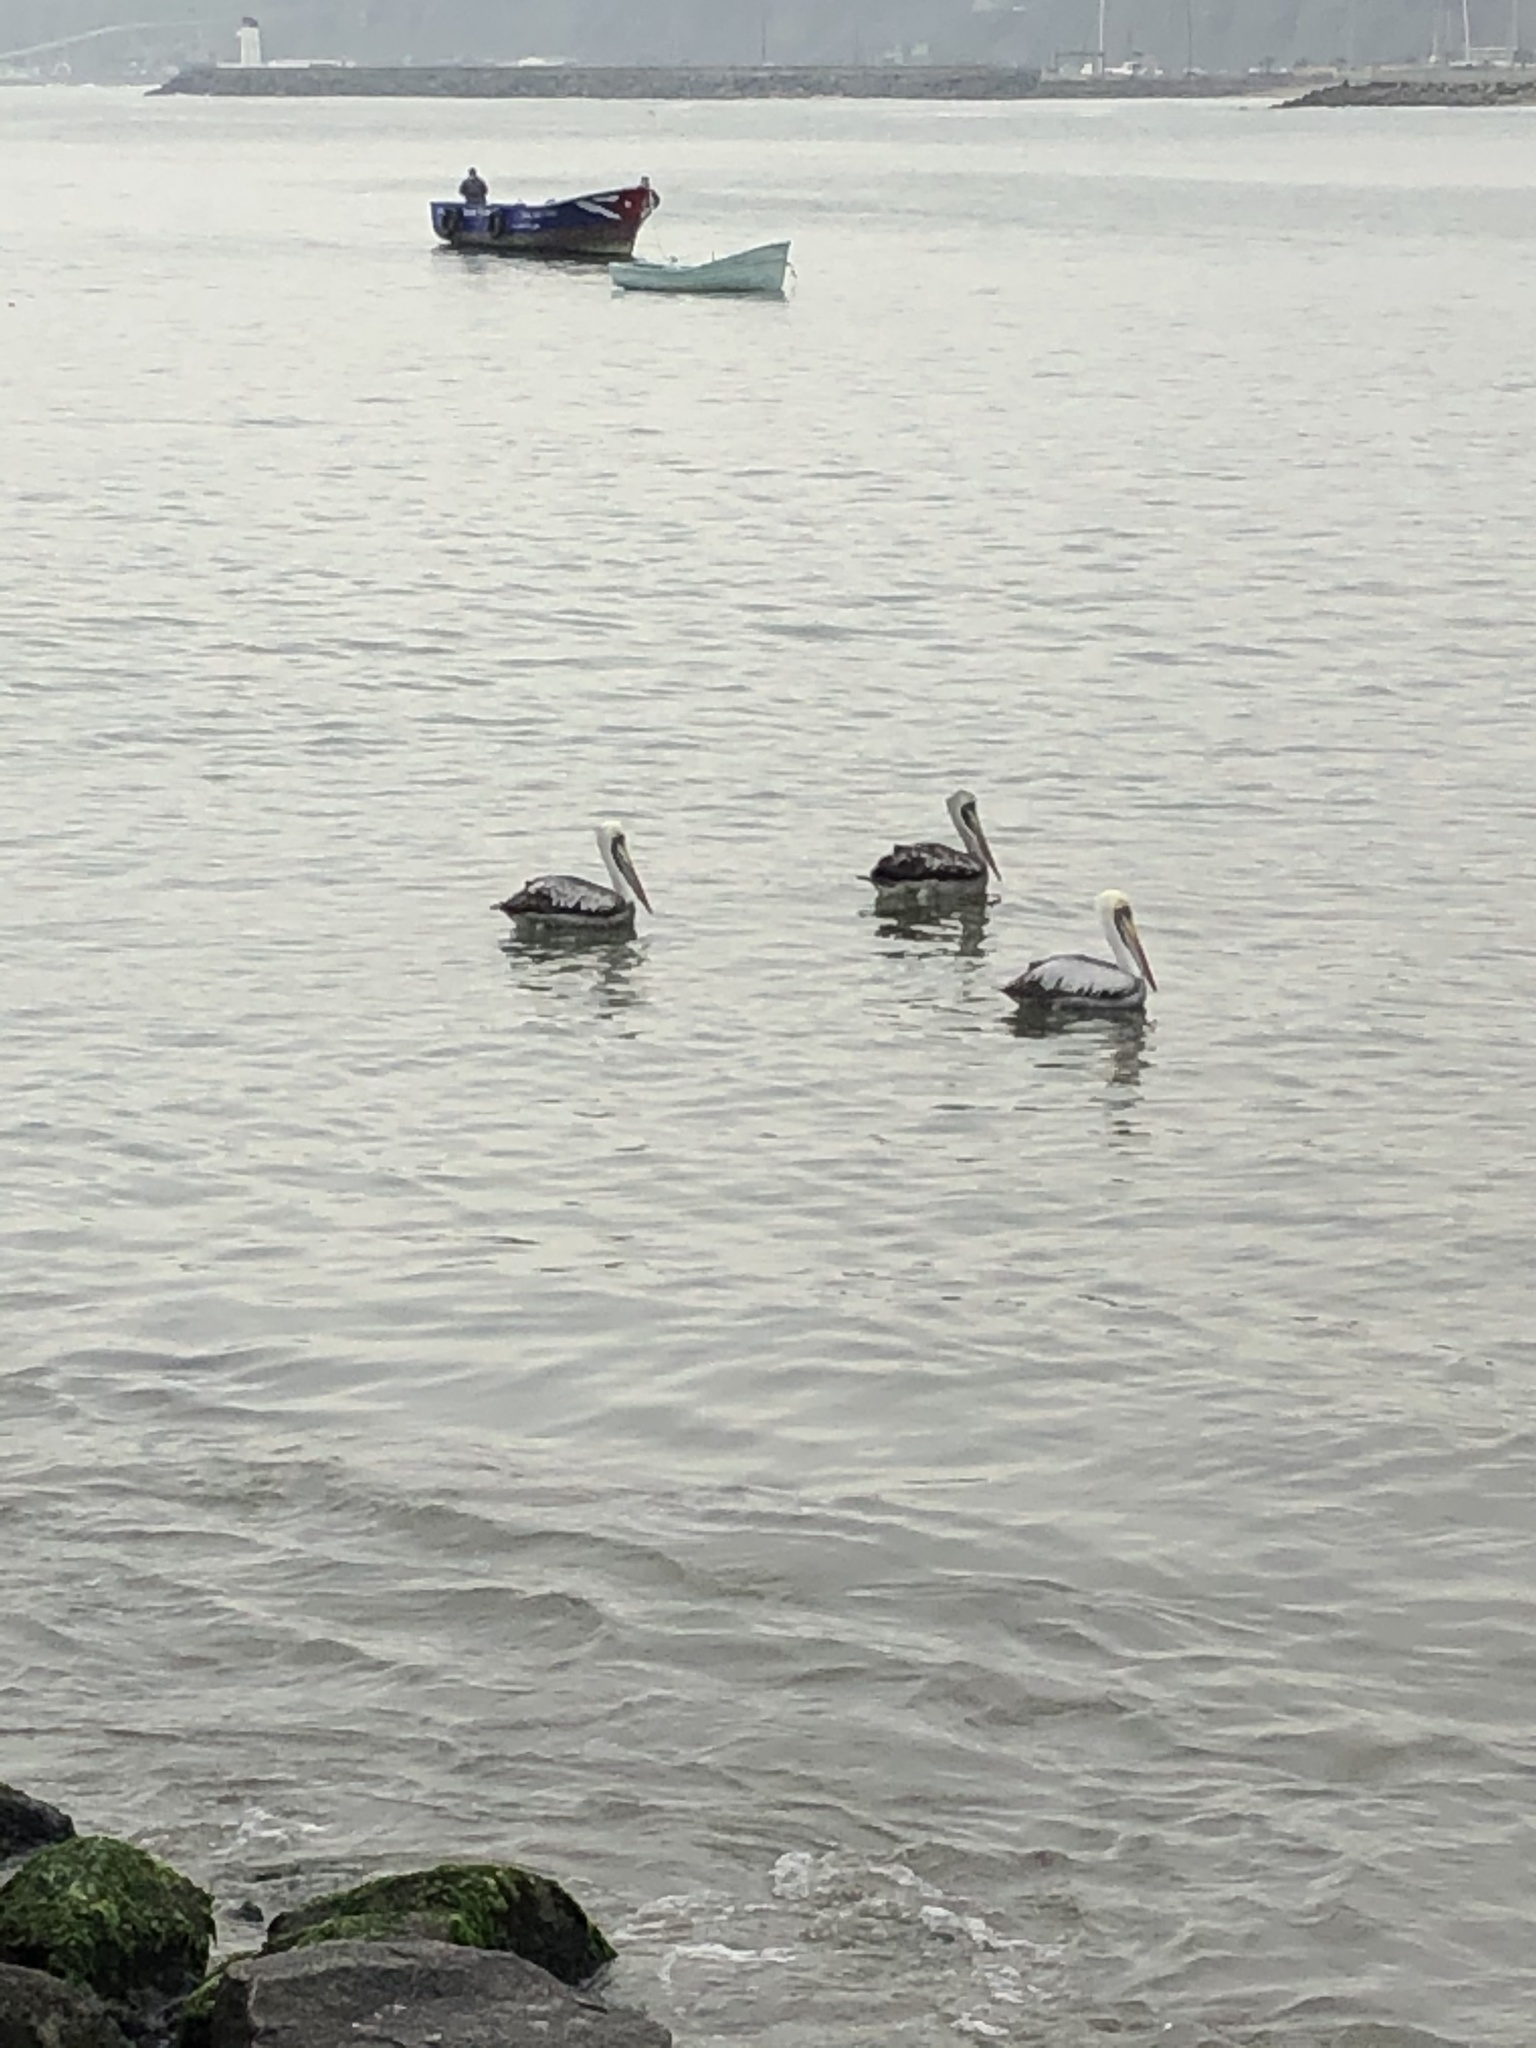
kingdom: Animalia
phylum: Chordata
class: Aves
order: Pelecaniformes
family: Pelecanidae
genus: Pelecanus
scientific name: Pelecanus thagus
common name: Peruvian pelican
